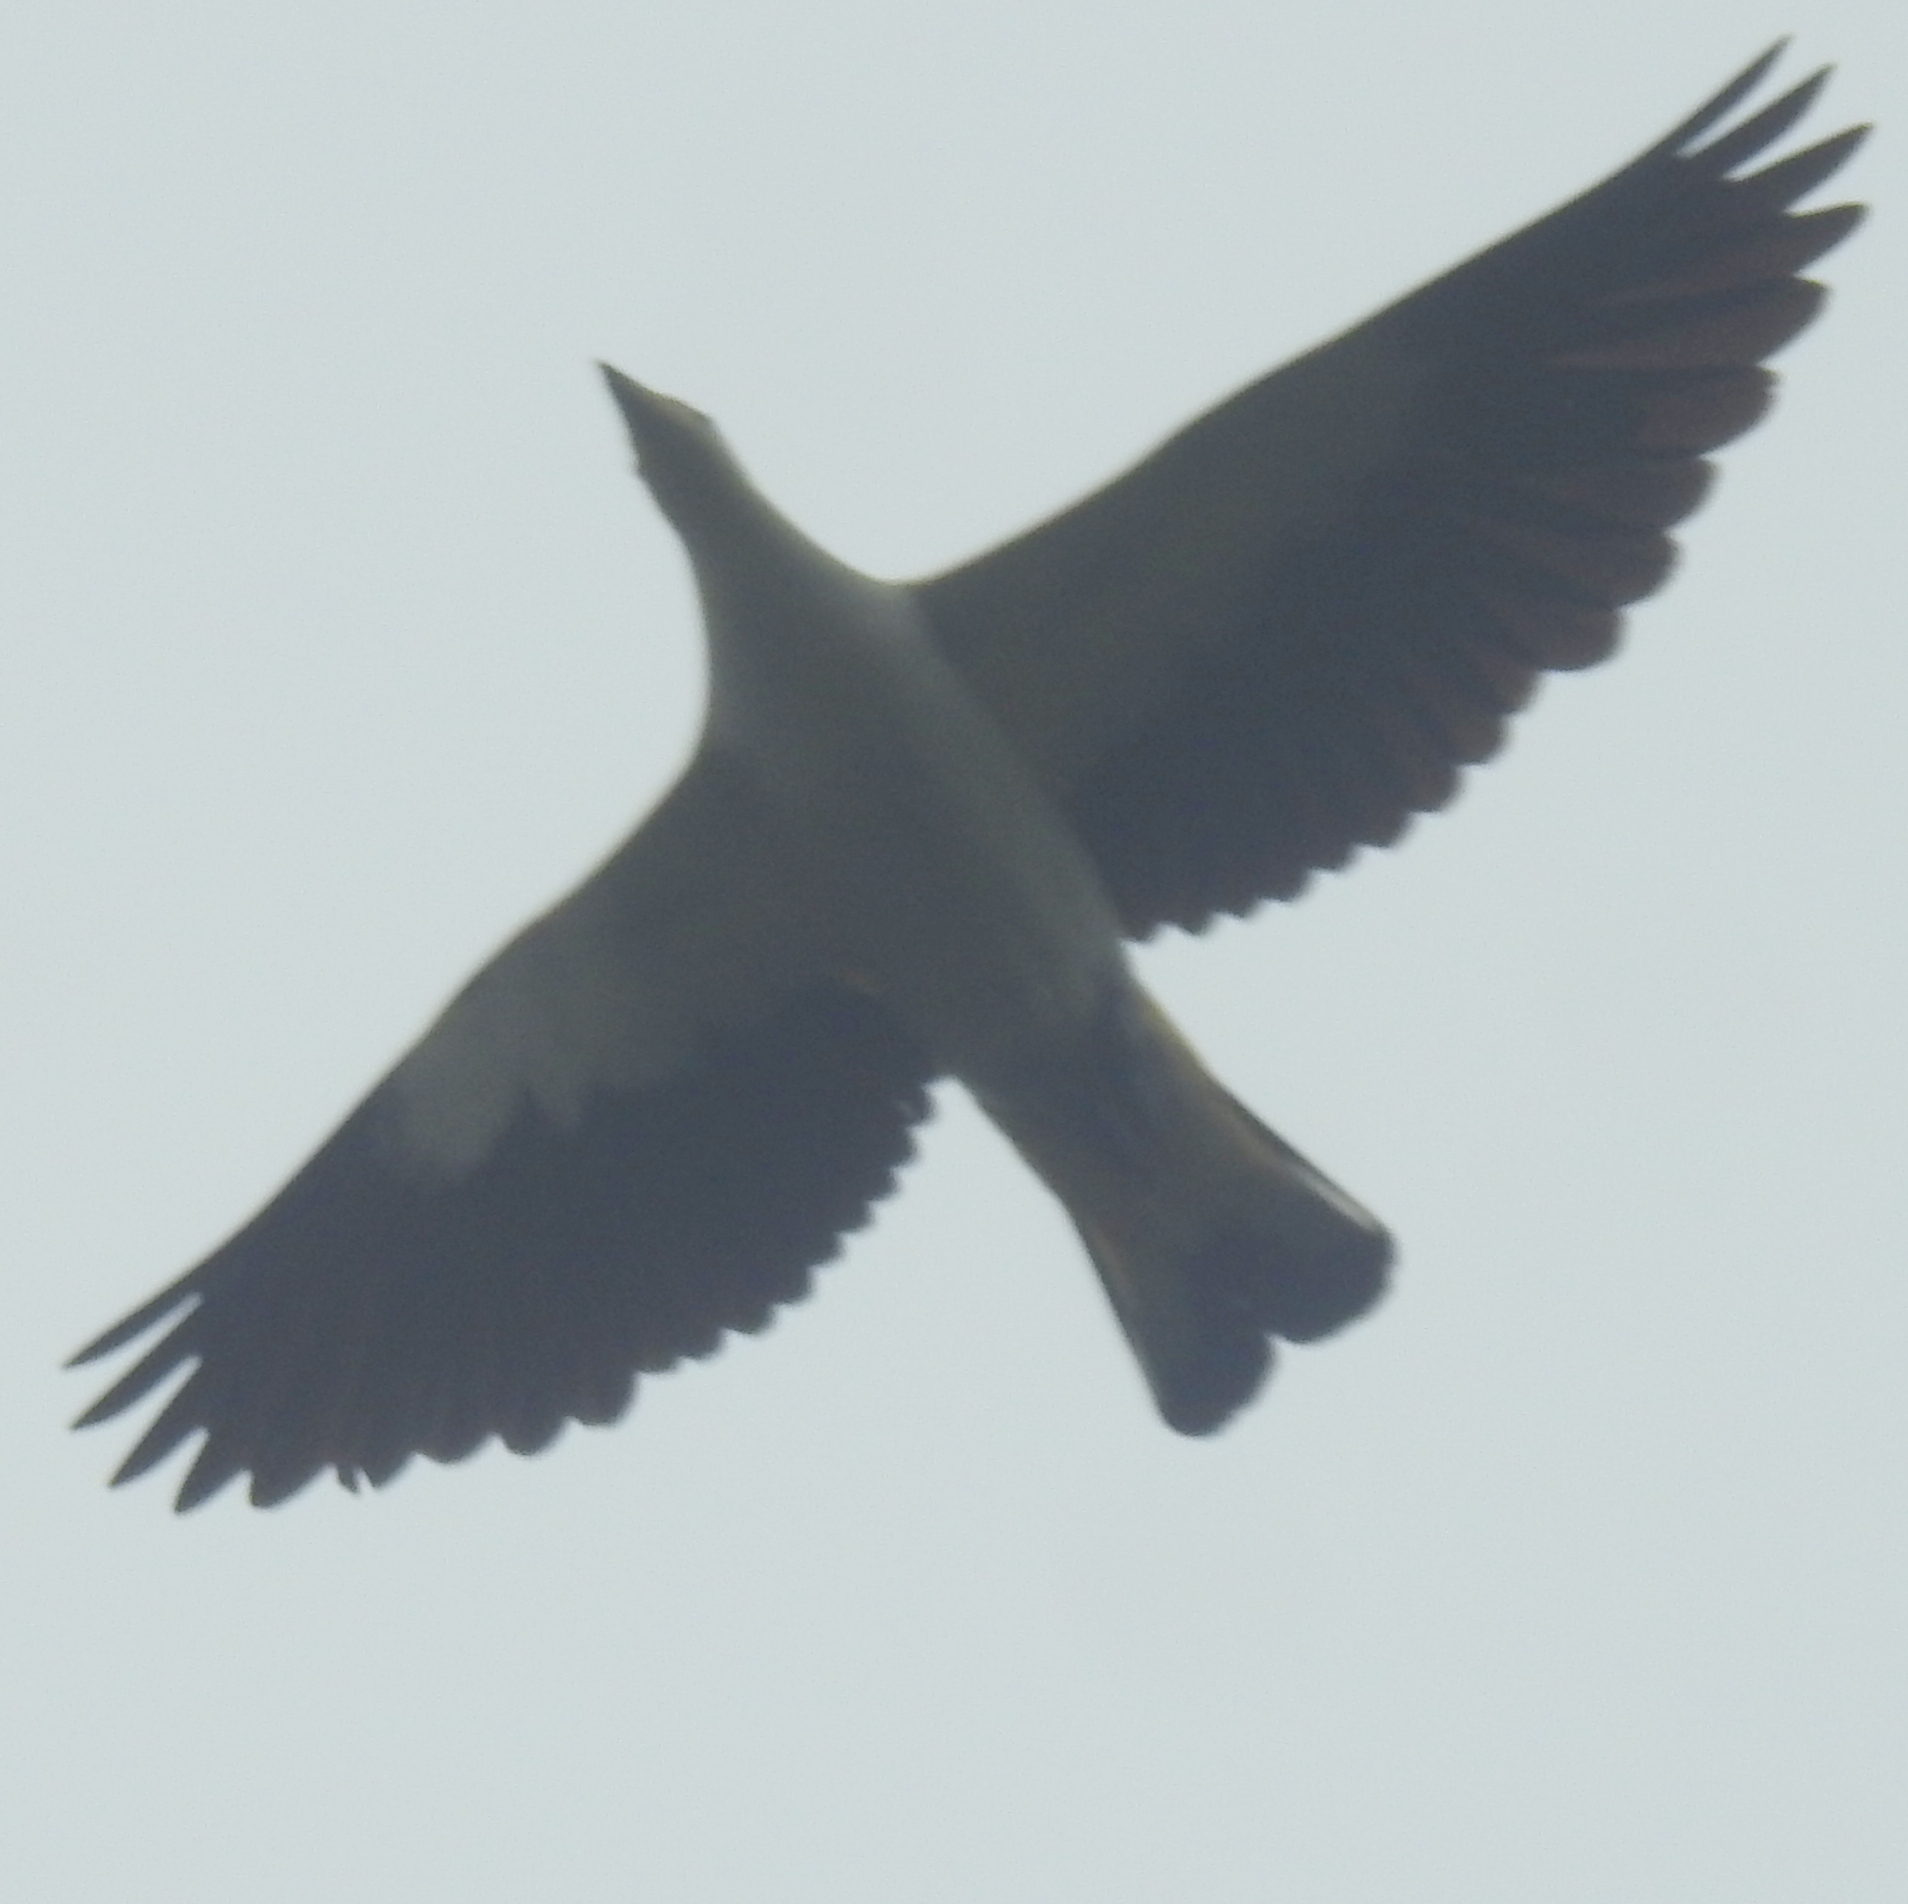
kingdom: Animalia
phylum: Chordata
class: Aves
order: Columbiformes
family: Columbidae
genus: Ducula
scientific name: Ducula bicolor
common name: Pied imperial pigeon
